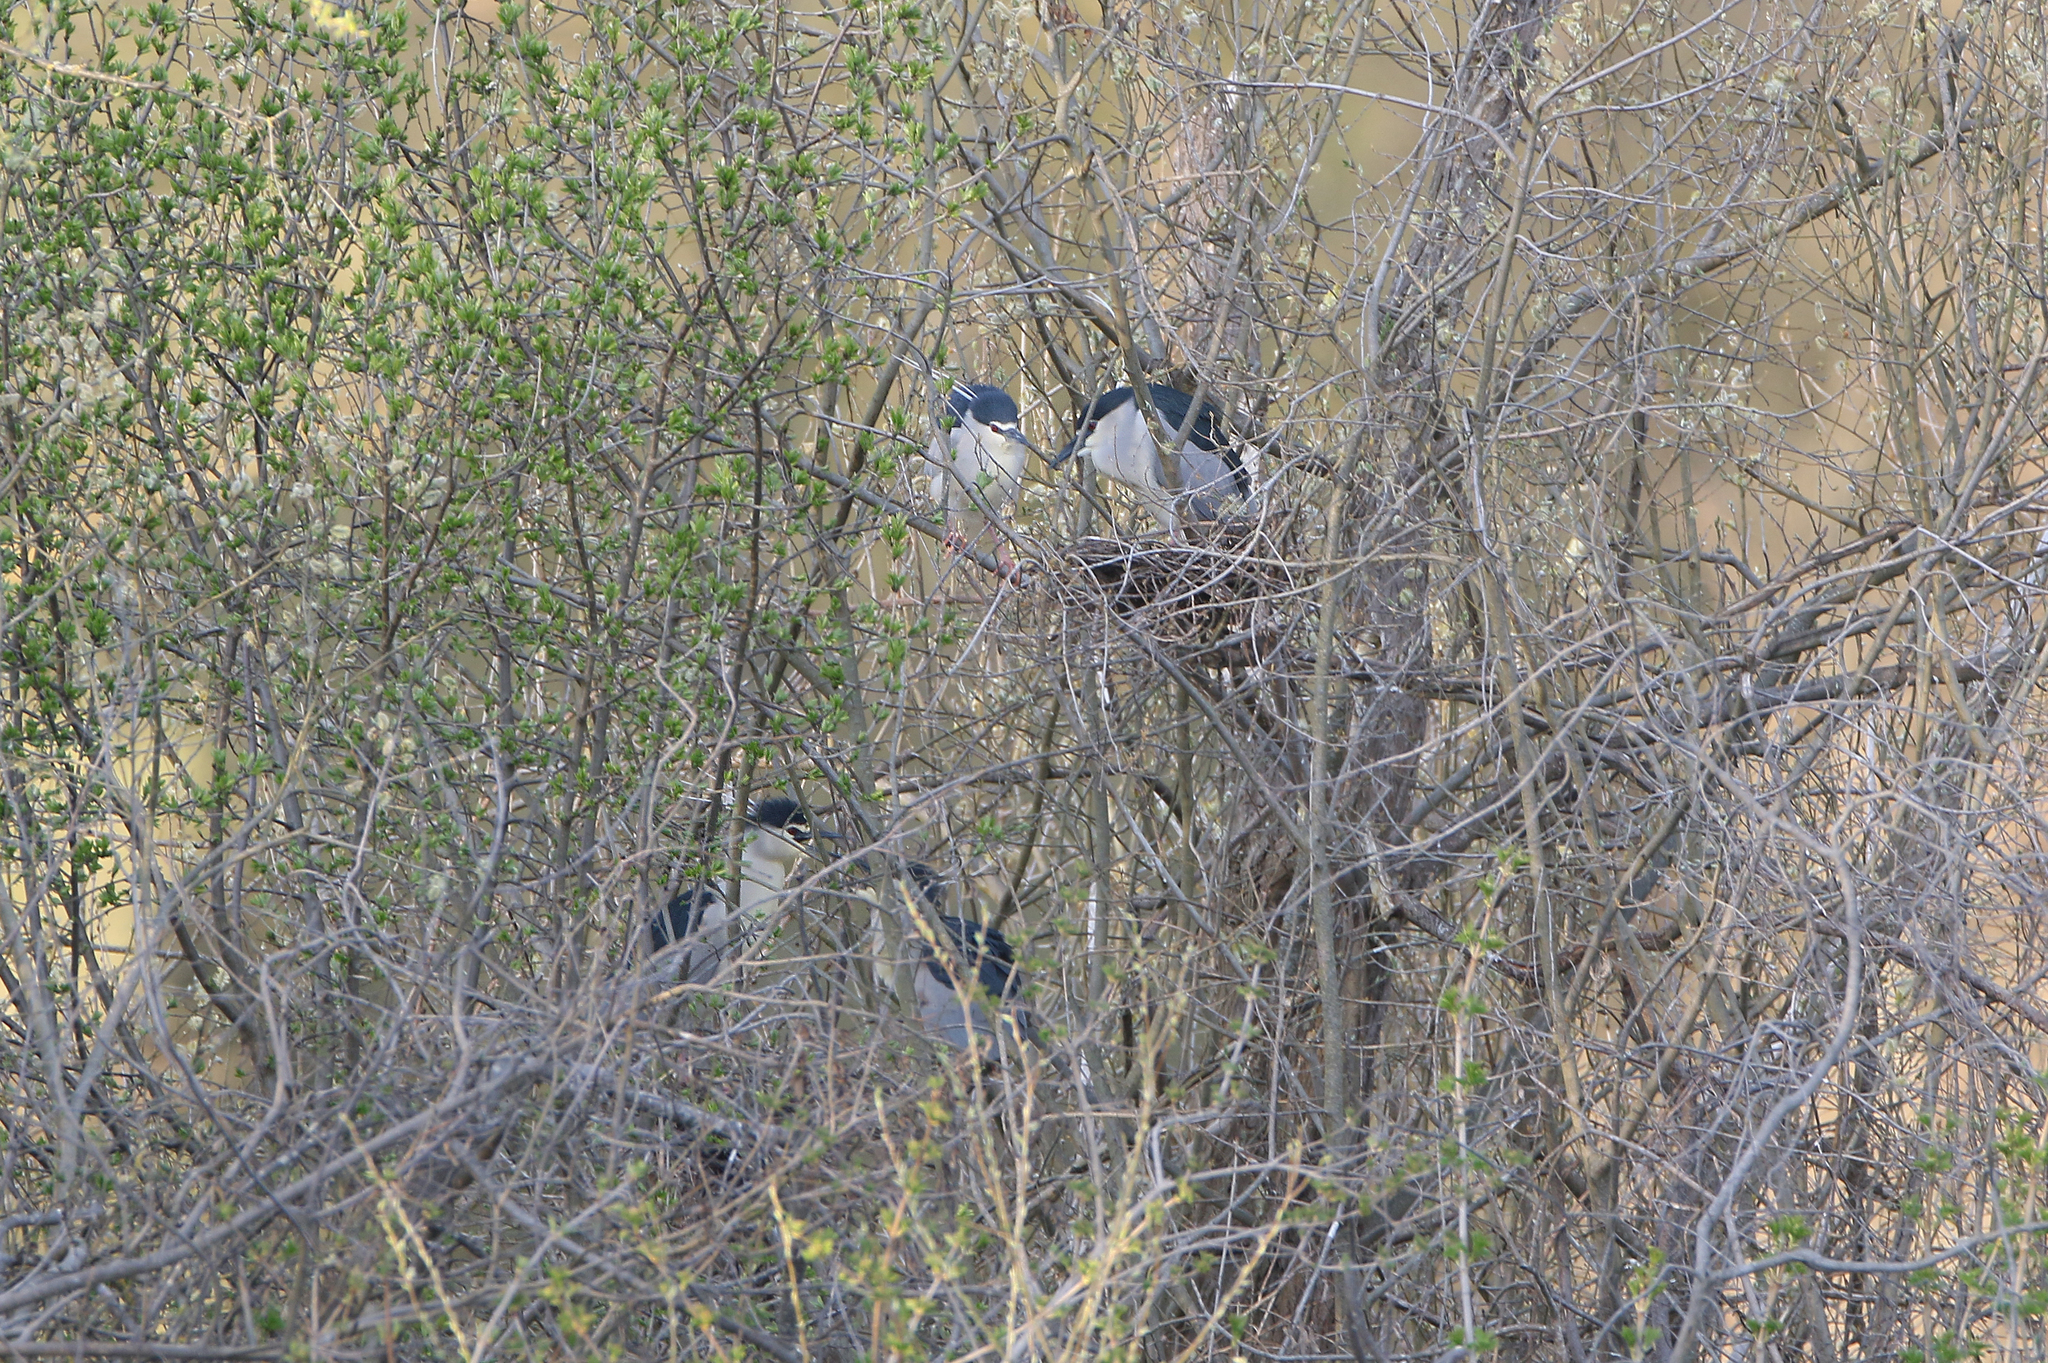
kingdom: Animalia
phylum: Chordata
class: Aves
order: Pelecaniformes
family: Ardeidae
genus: Nycticorax
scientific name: Nycticorax nycticorax
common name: Black-crowned night heron
